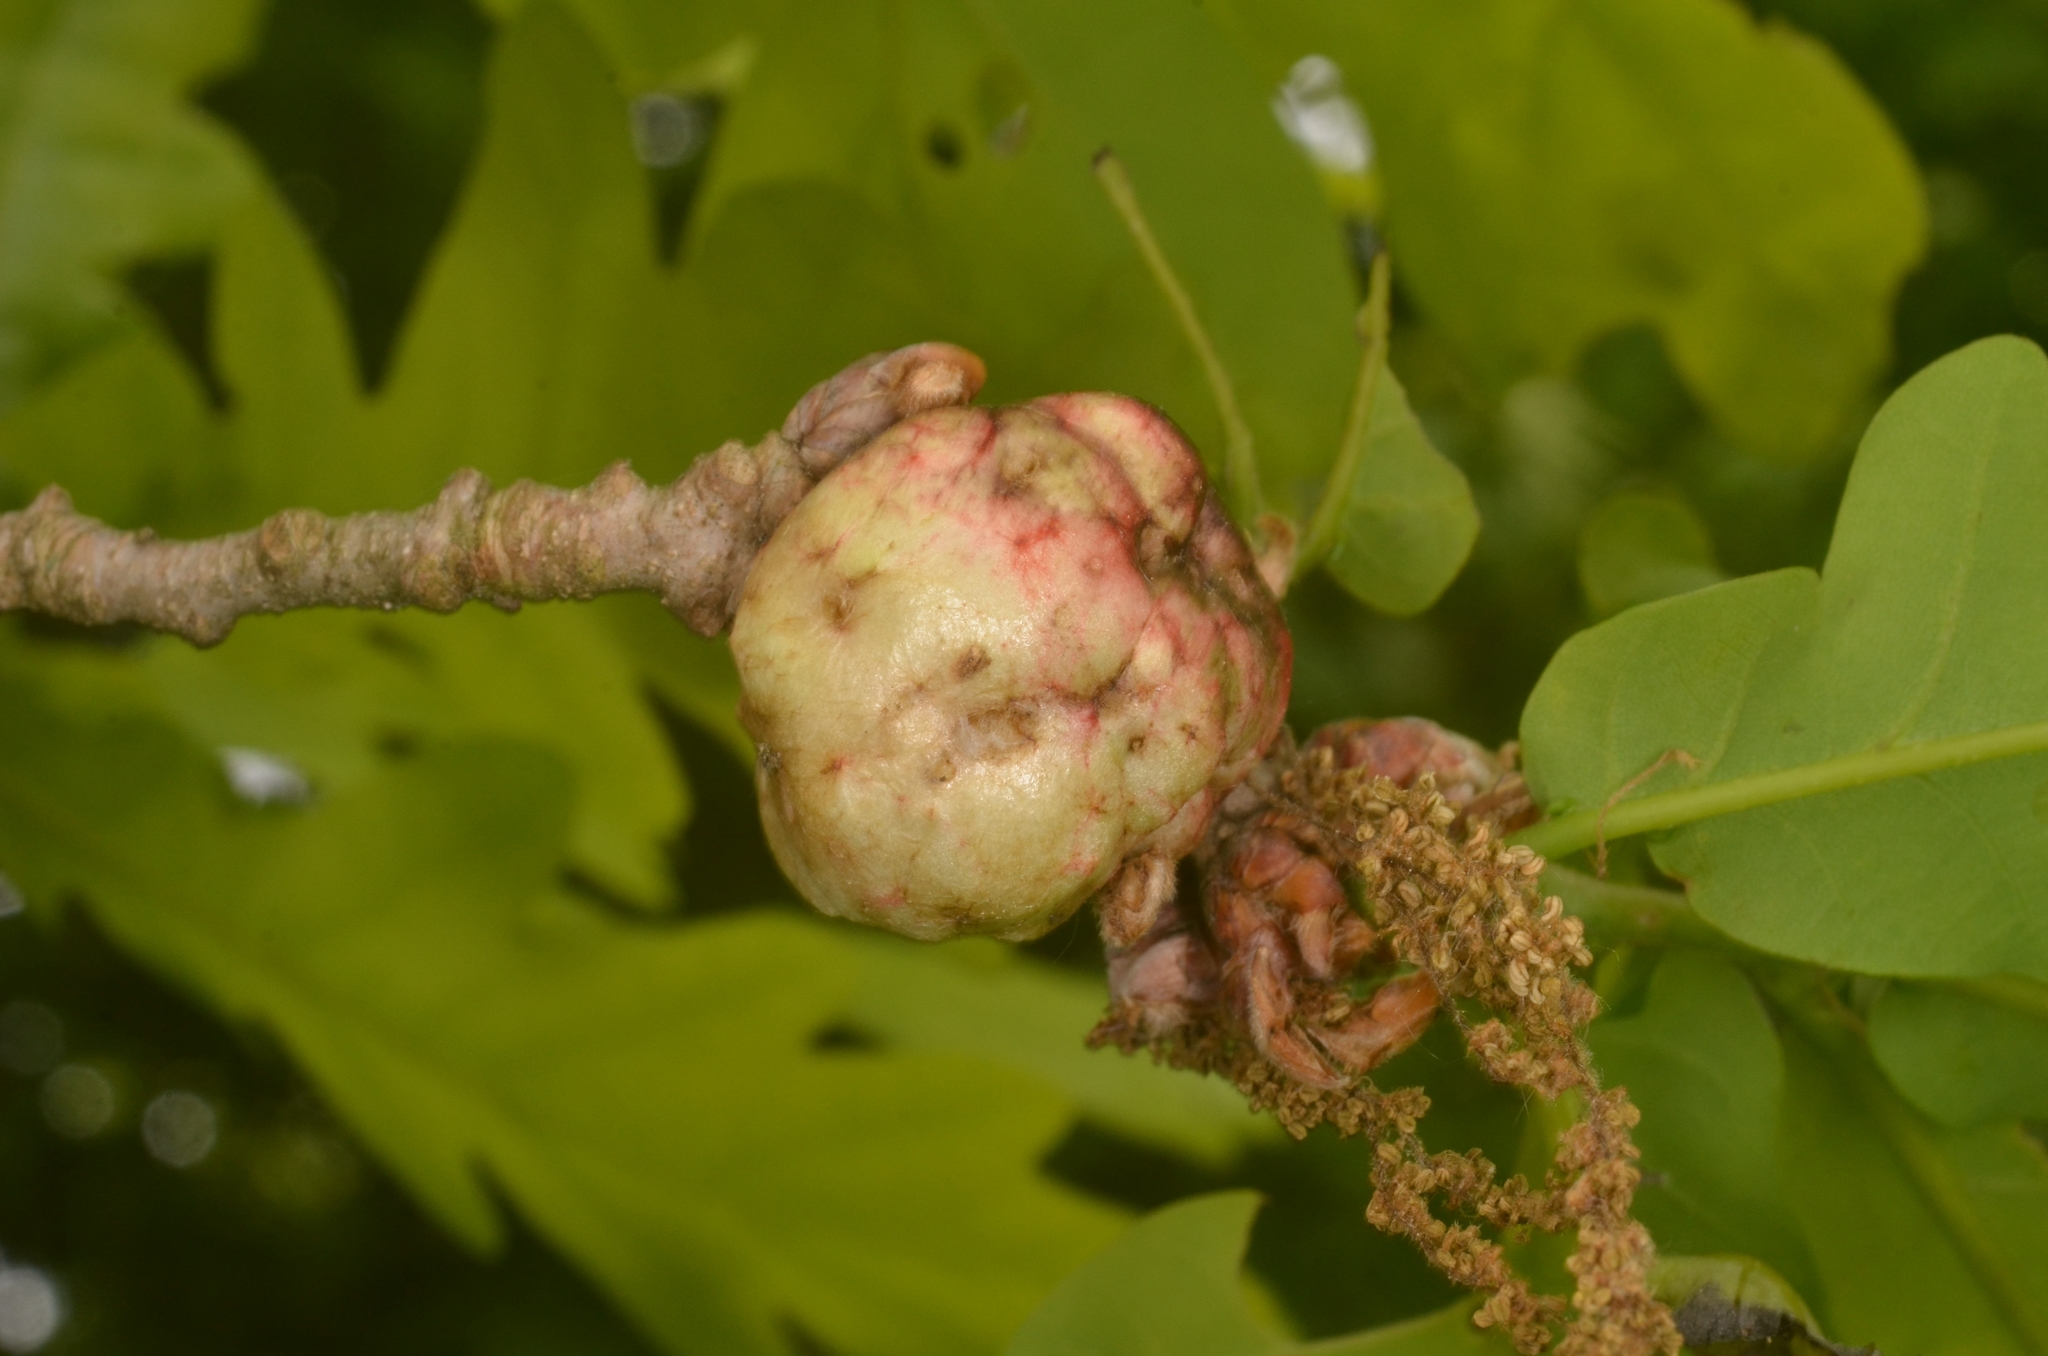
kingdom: Animalia
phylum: Arthropoda
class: Insecta
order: Hymenoptera
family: Cynipidae
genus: Biorhiza
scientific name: Biorhiza pallida
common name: Oak apple
